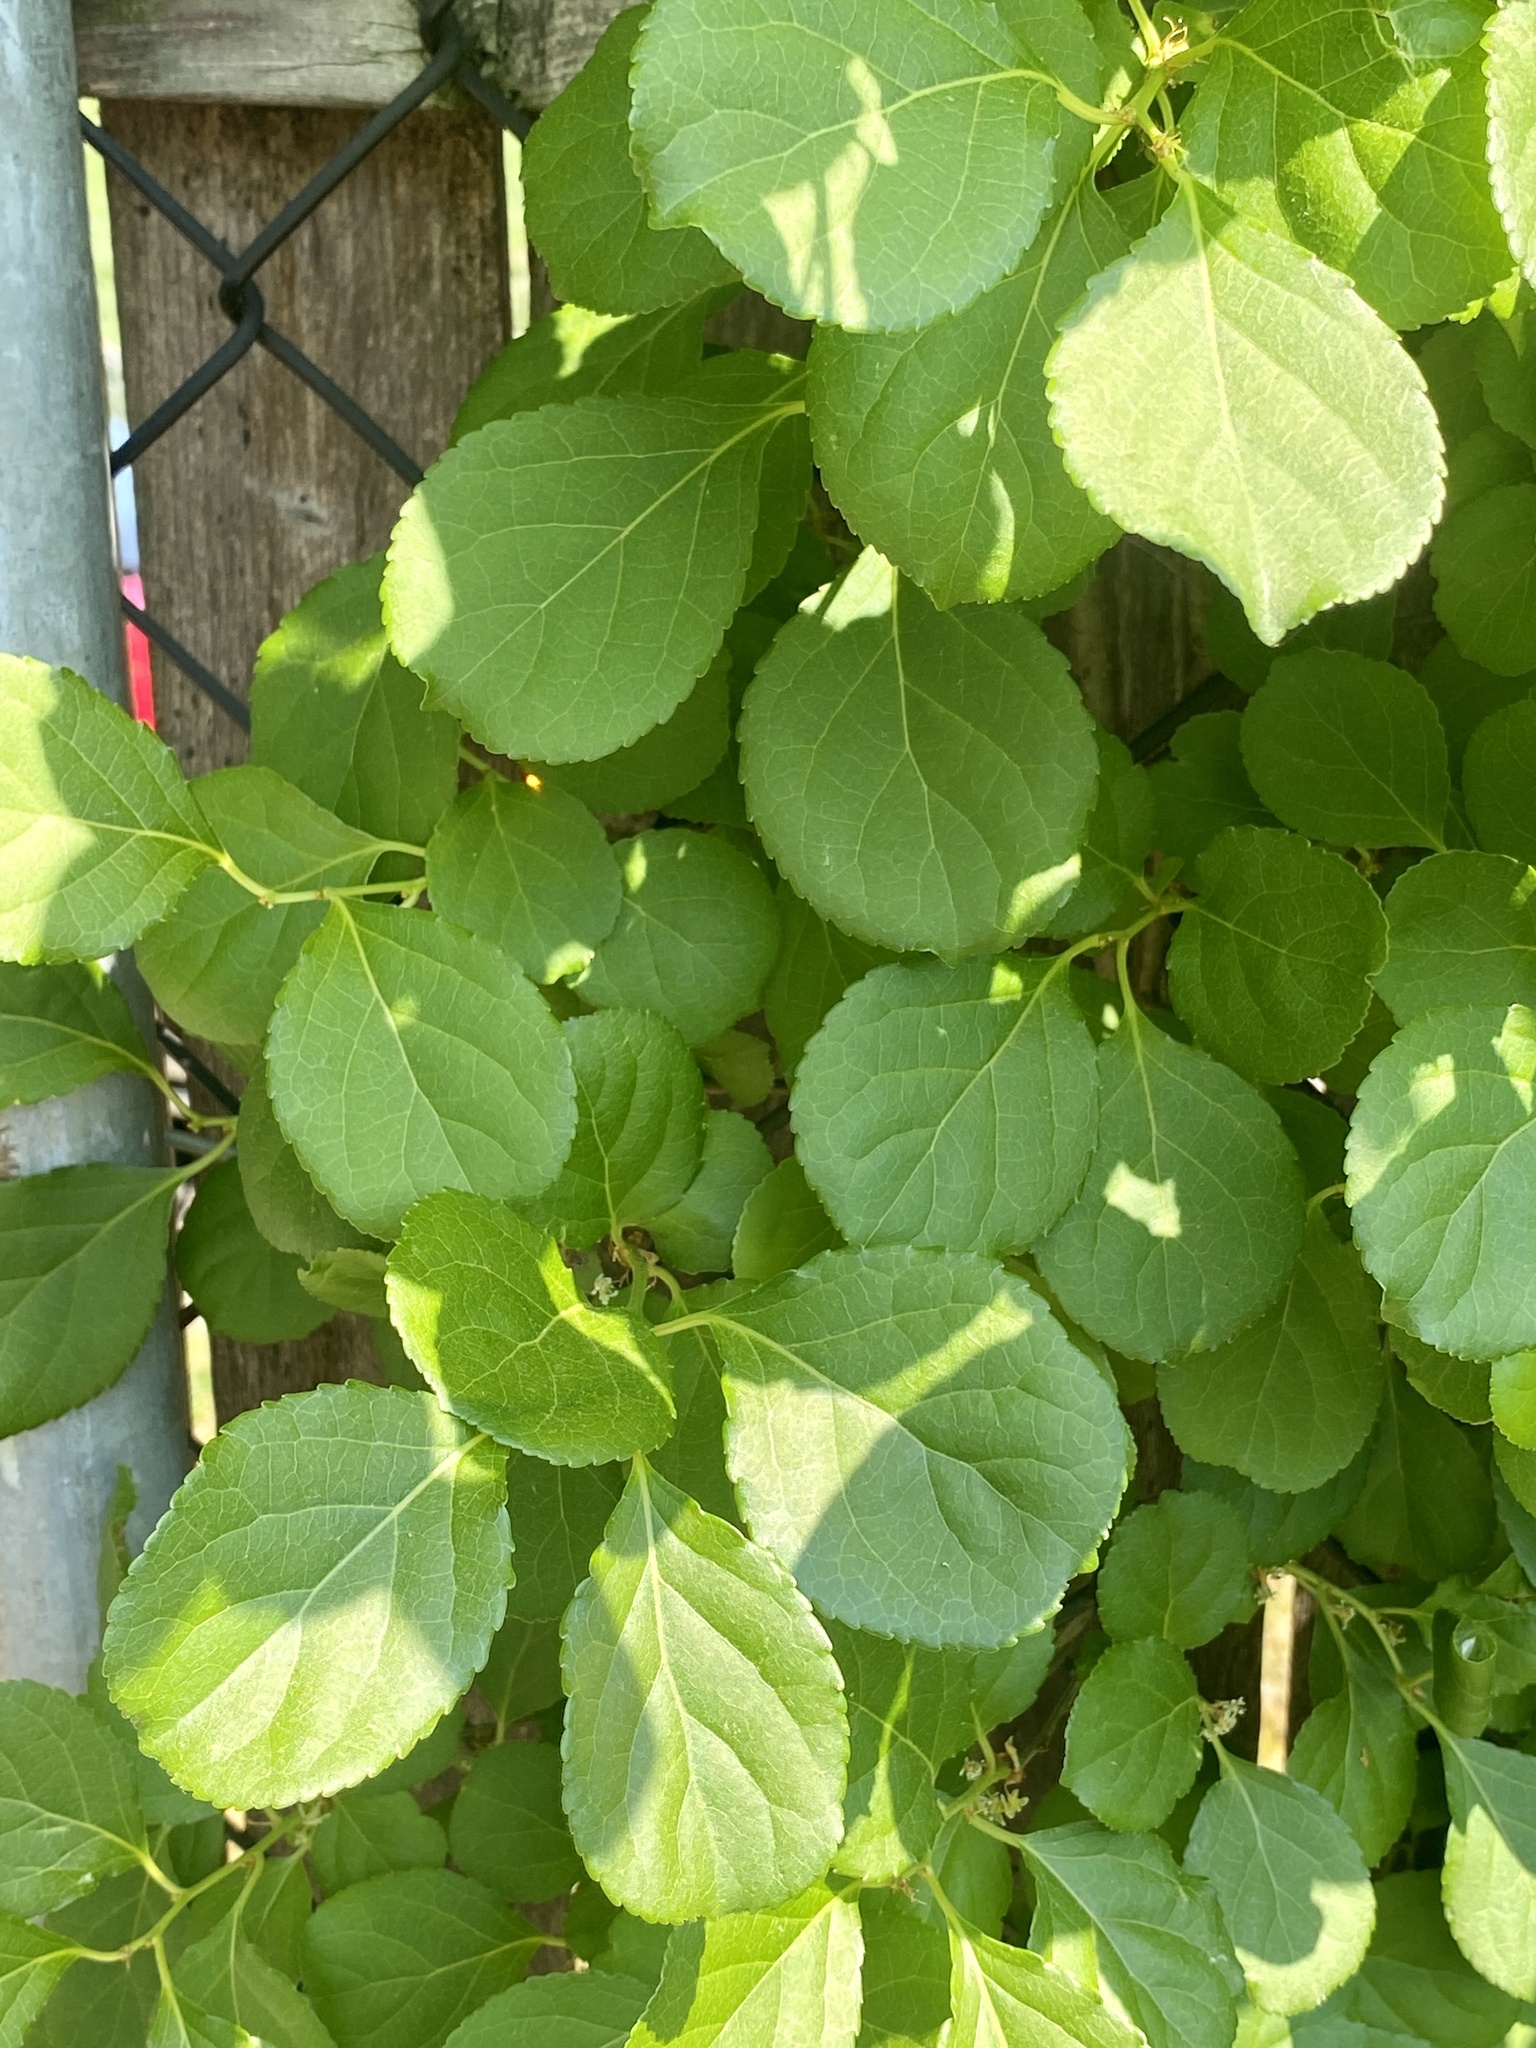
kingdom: Plantae
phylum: Tracheophyta
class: Magnoliopsida
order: Celastrales
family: Celastraceae
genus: Celastrus
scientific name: Celastrus orbiculatus
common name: Oriental bittersweet
